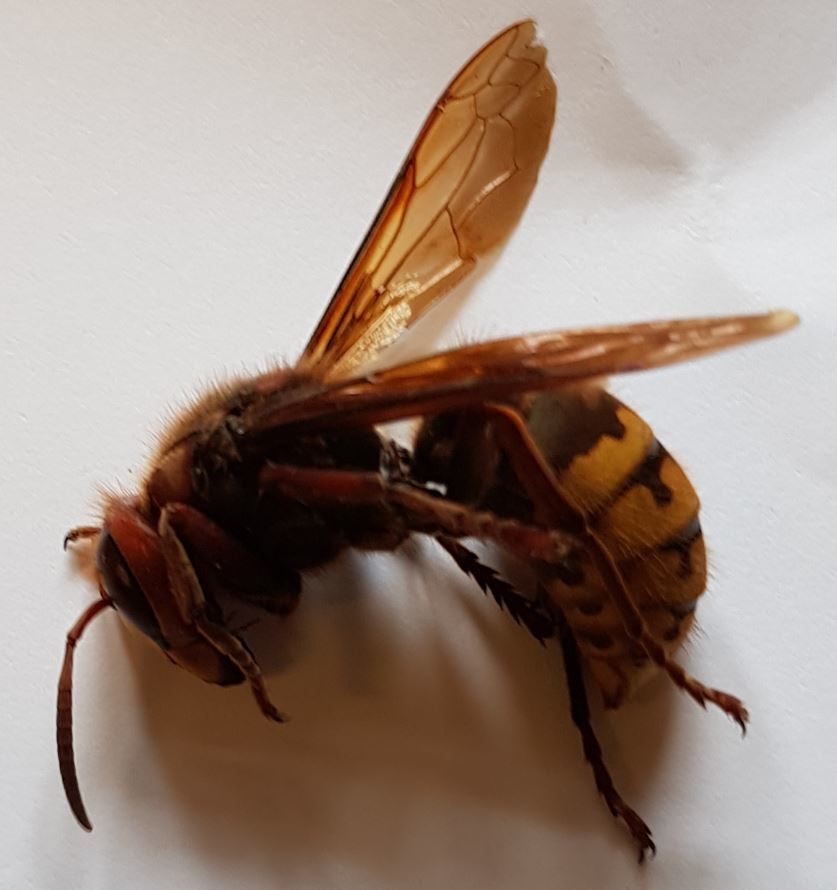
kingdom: Animalia
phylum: Arthropoda
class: Insecta
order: Hymenoptera
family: Vespidae
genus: Vespa
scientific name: Vespa crabro
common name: Hornet
